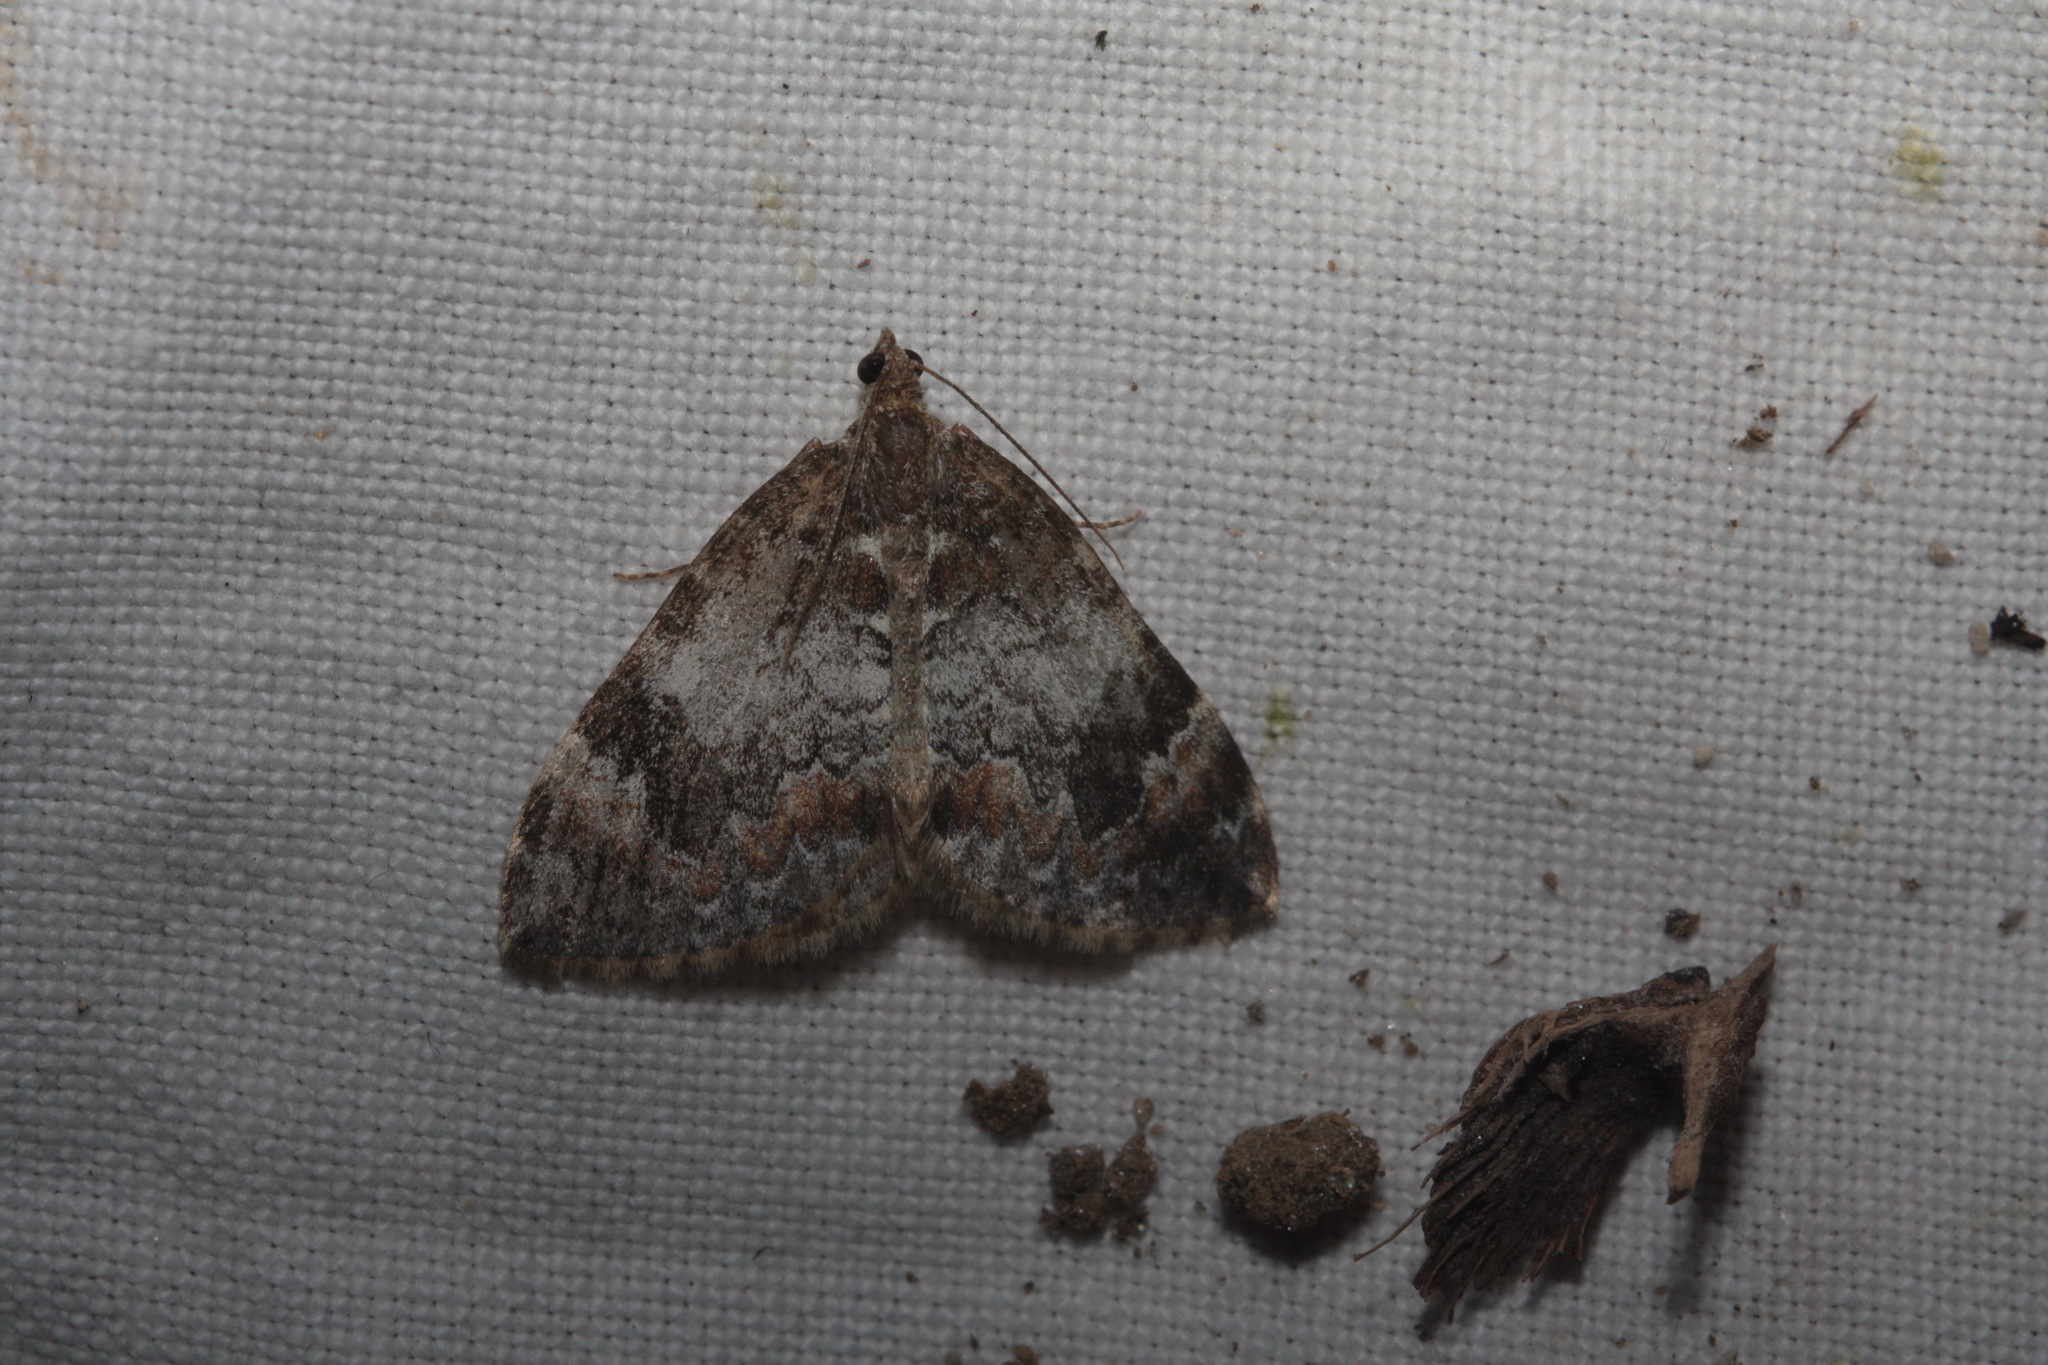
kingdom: Animalia
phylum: Arthropoda
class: Insecta
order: Lepidoptera
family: Geometridae
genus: Dysstroma
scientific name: Dysstroma truncata
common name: Common marbled carpet
